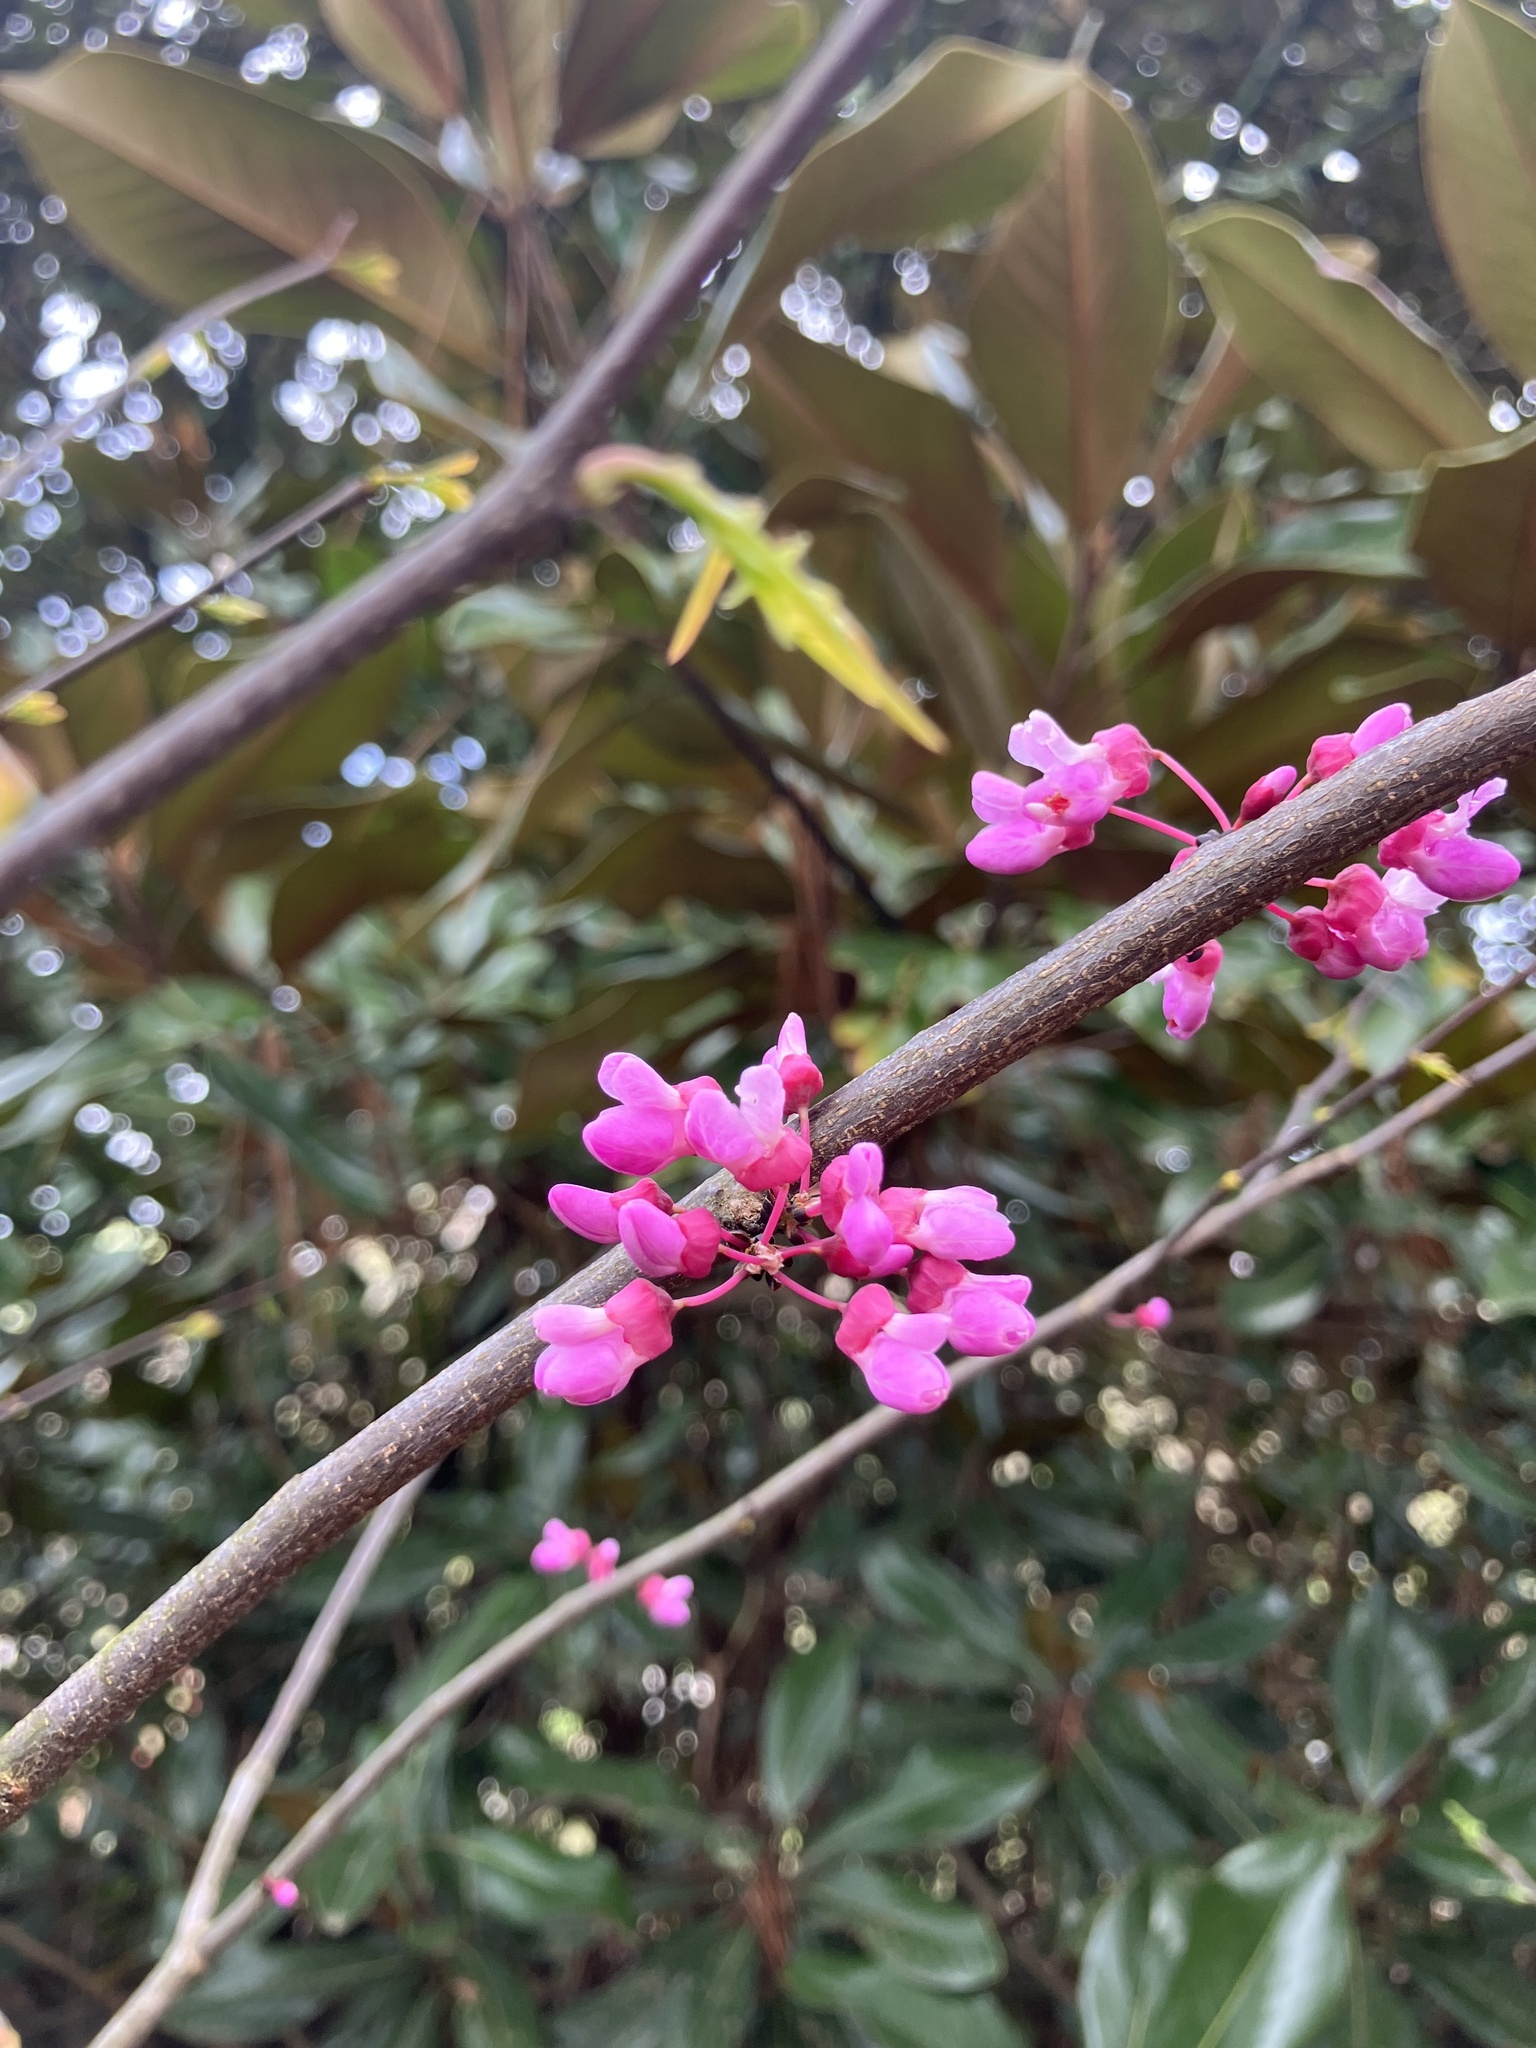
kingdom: Plantae
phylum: Tracheophyta
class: Magnoliopsida
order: Fabales
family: Fabaceae
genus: Cercis
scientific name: Cercis canadensis
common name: Eastern redbud
